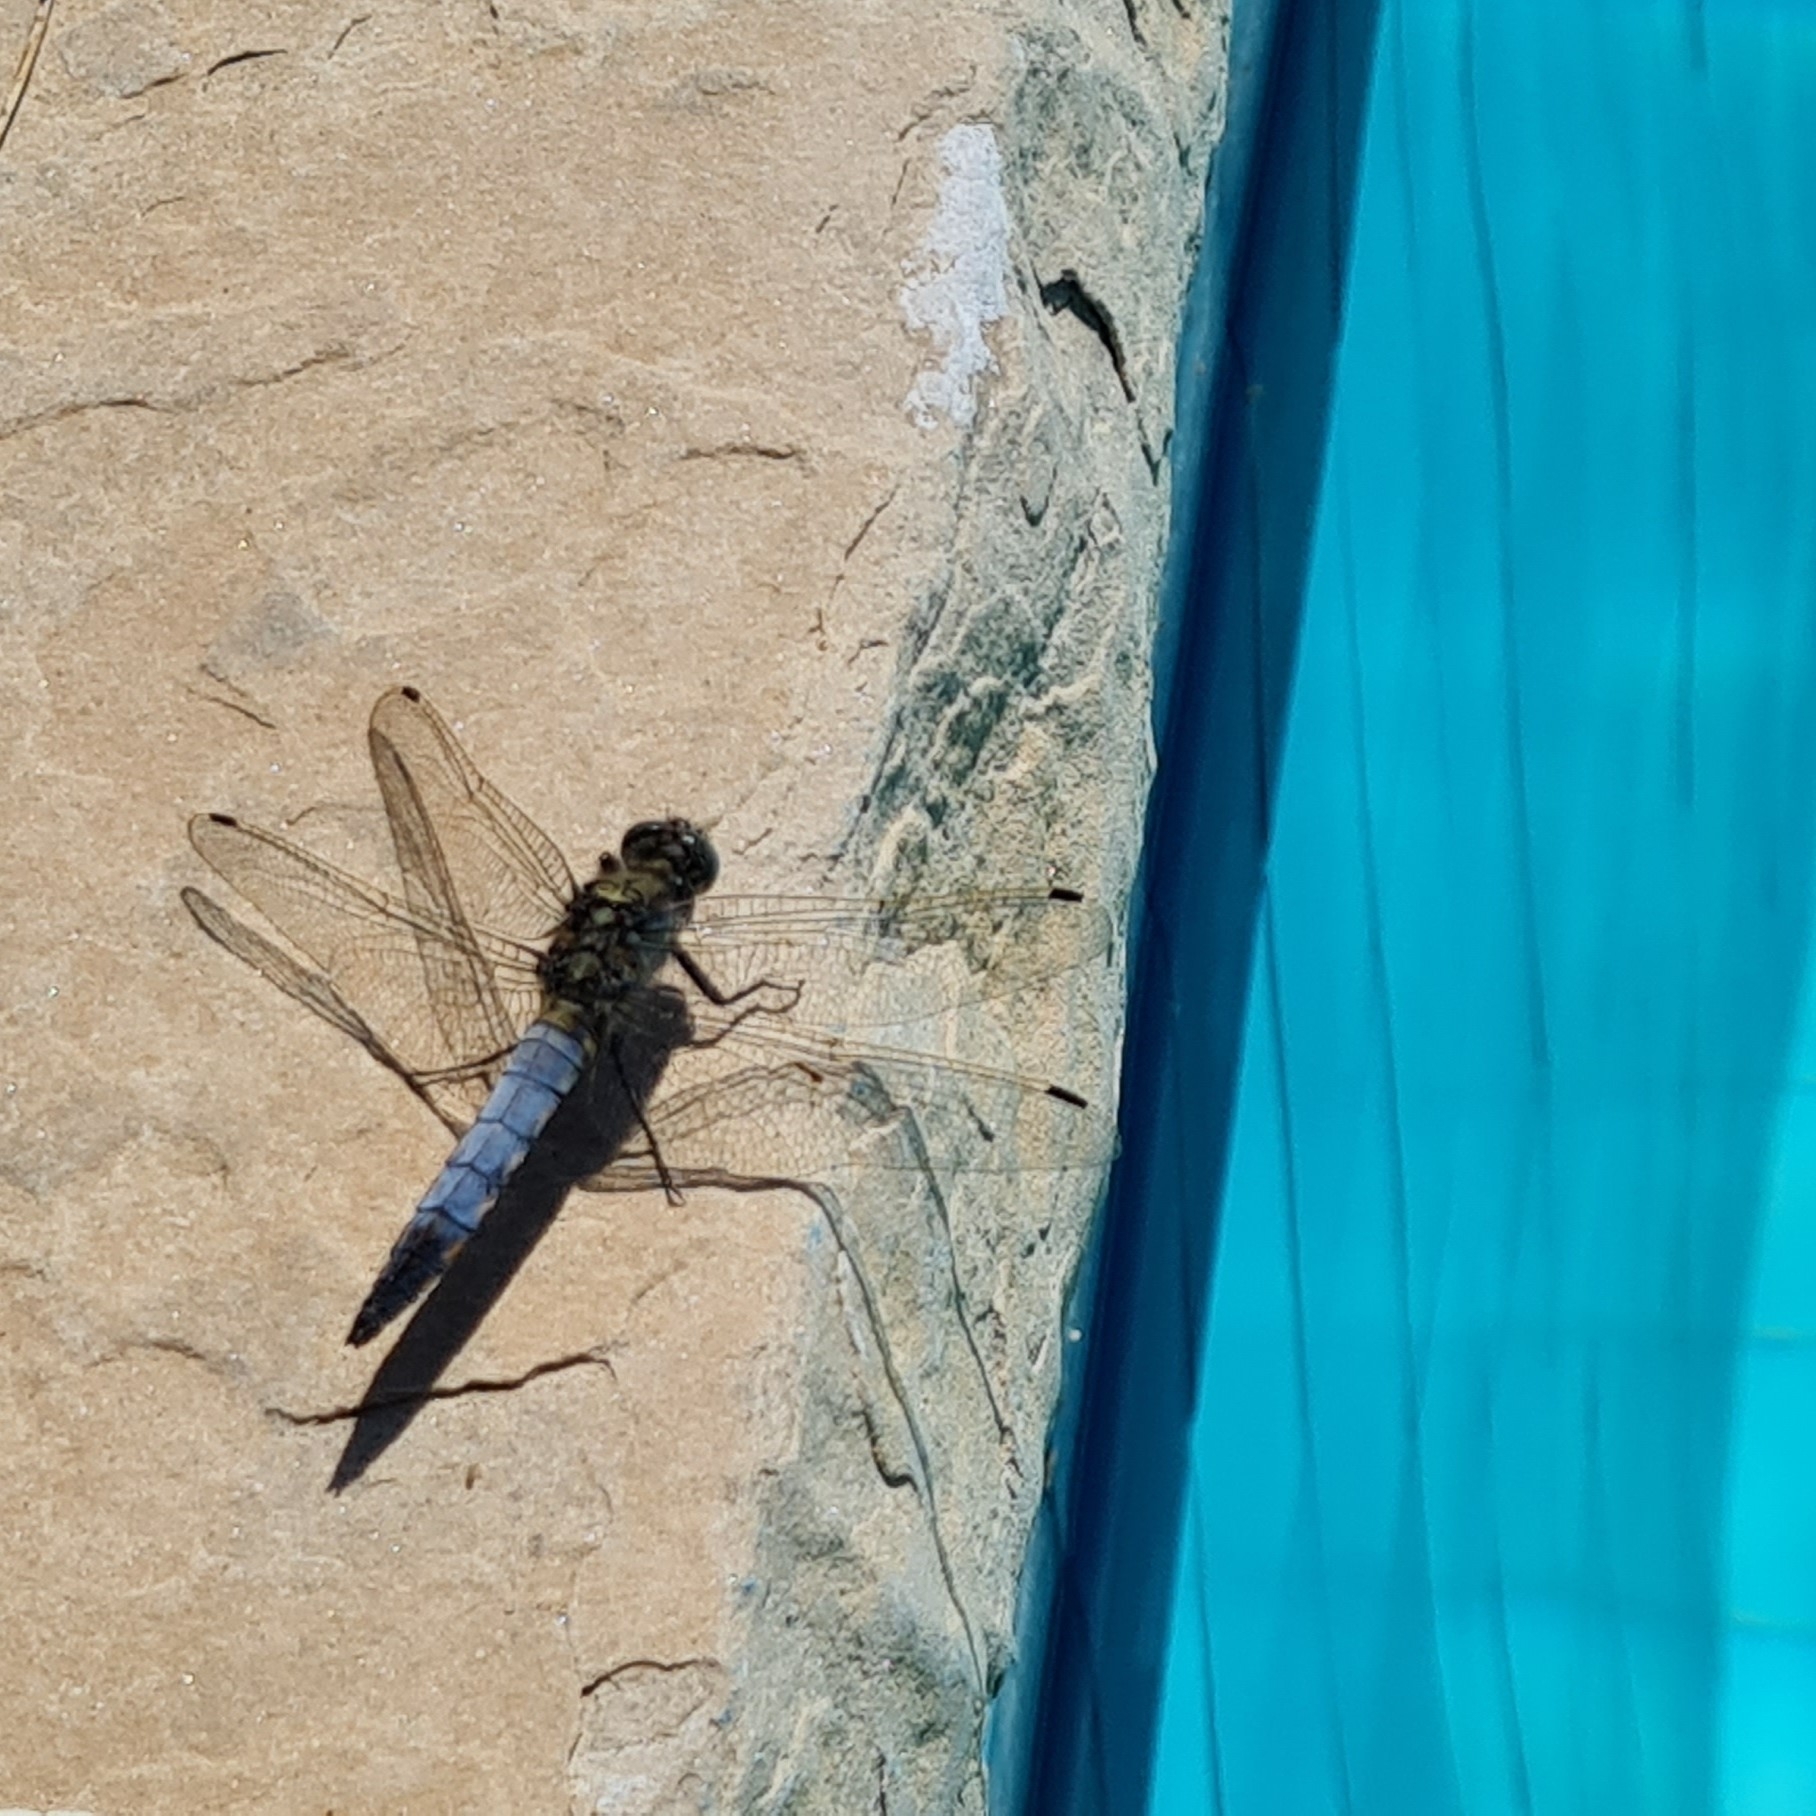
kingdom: Animalia
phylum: Arthropoda
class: Insecta
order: Odonata
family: Libellulidae
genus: Orthetrum
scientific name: Orthetrum cancellatum
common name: Black-tailed skimmer
